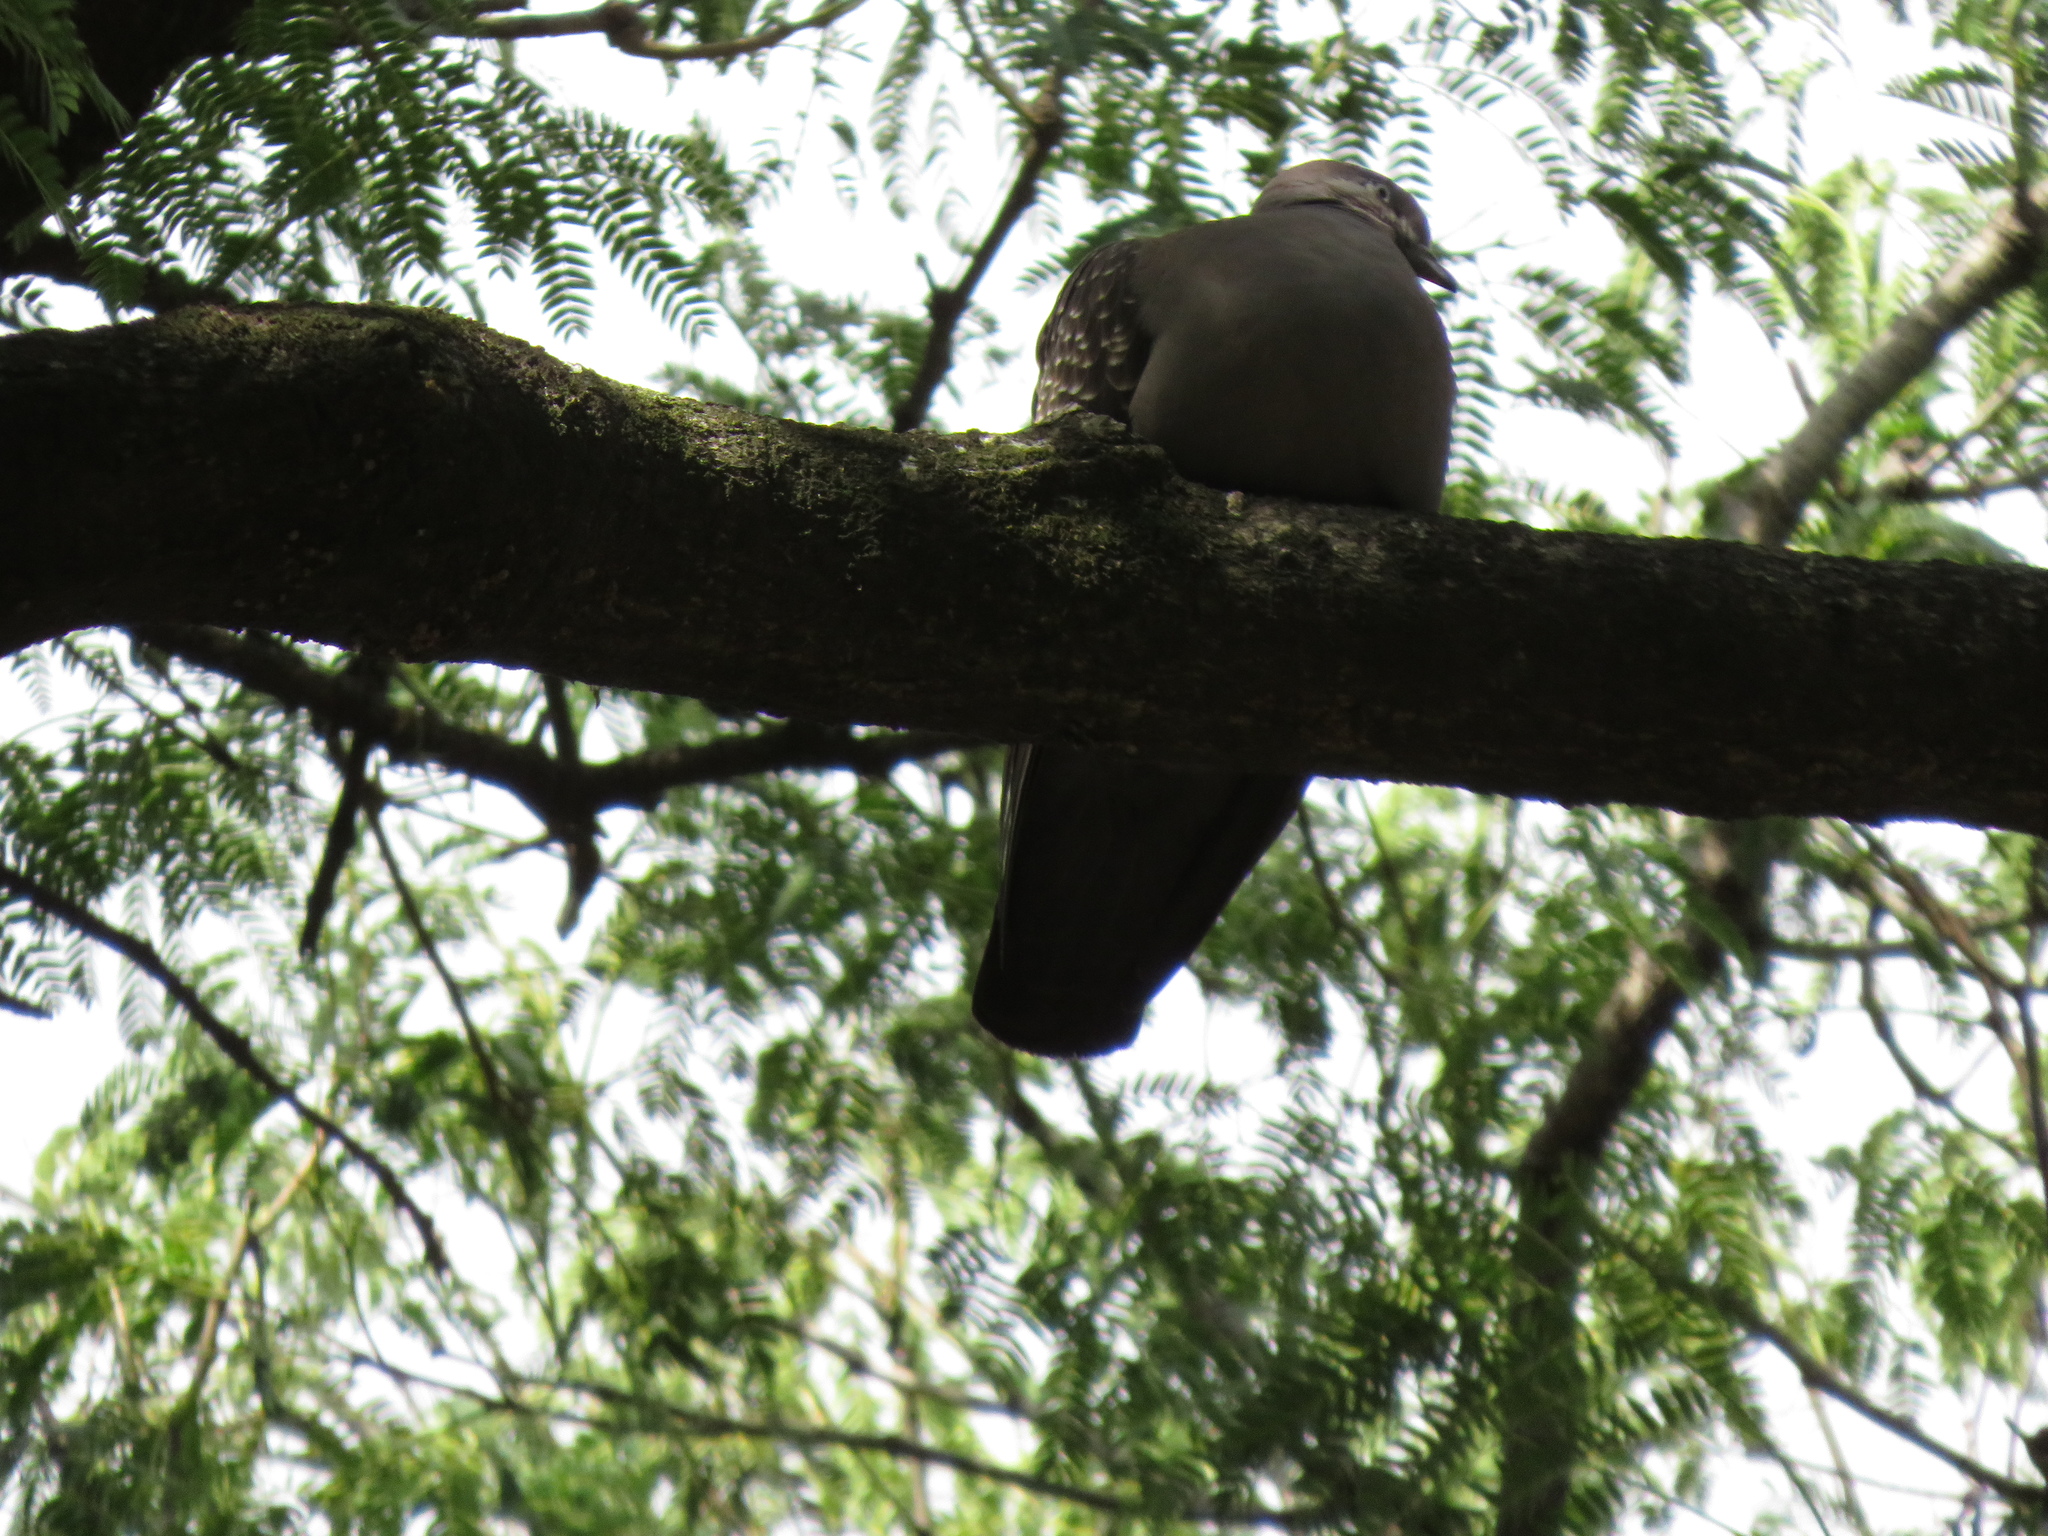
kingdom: Animalia
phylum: Chordata
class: Aves
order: Columbiformes
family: Columbidae
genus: Patagioenas
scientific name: Patagioenas maculosa
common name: Spot-winged pigeon
